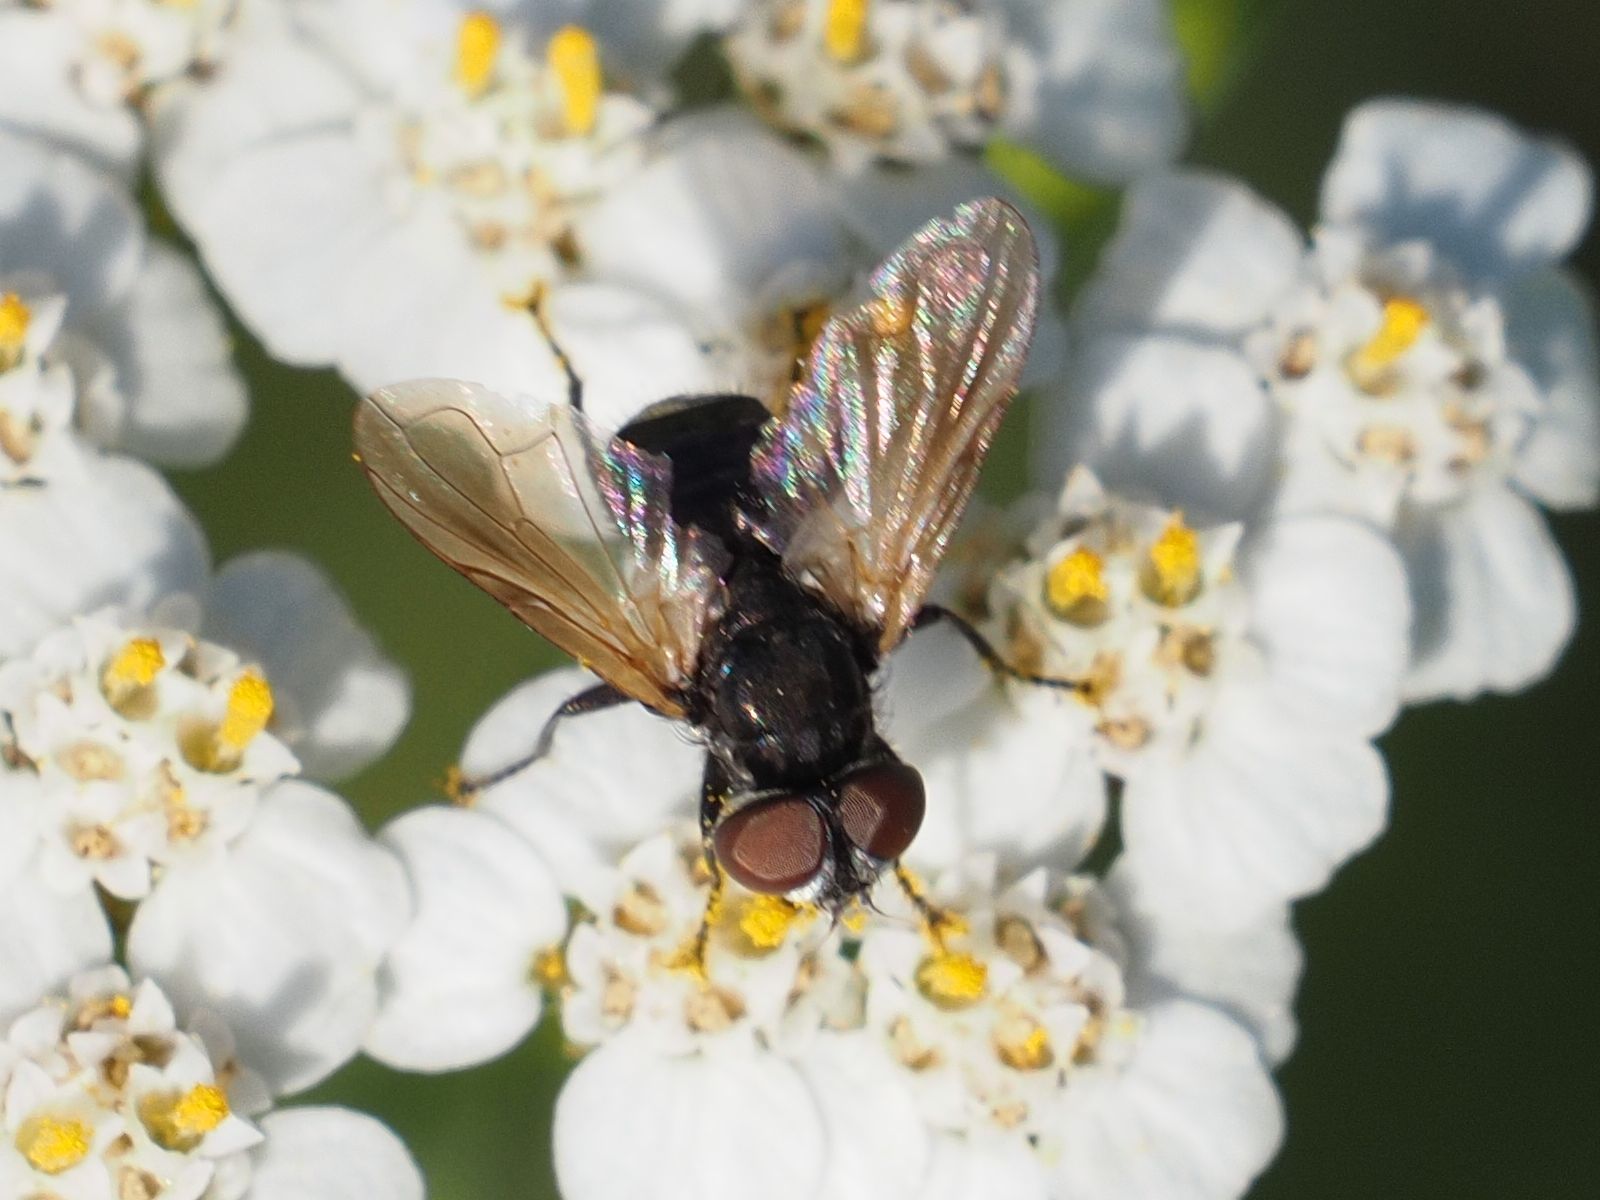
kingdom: Animalia
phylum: Arthropoda
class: Insecta
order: Diptera
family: Tachinidae
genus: Phasia
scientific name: Phasia obesa
